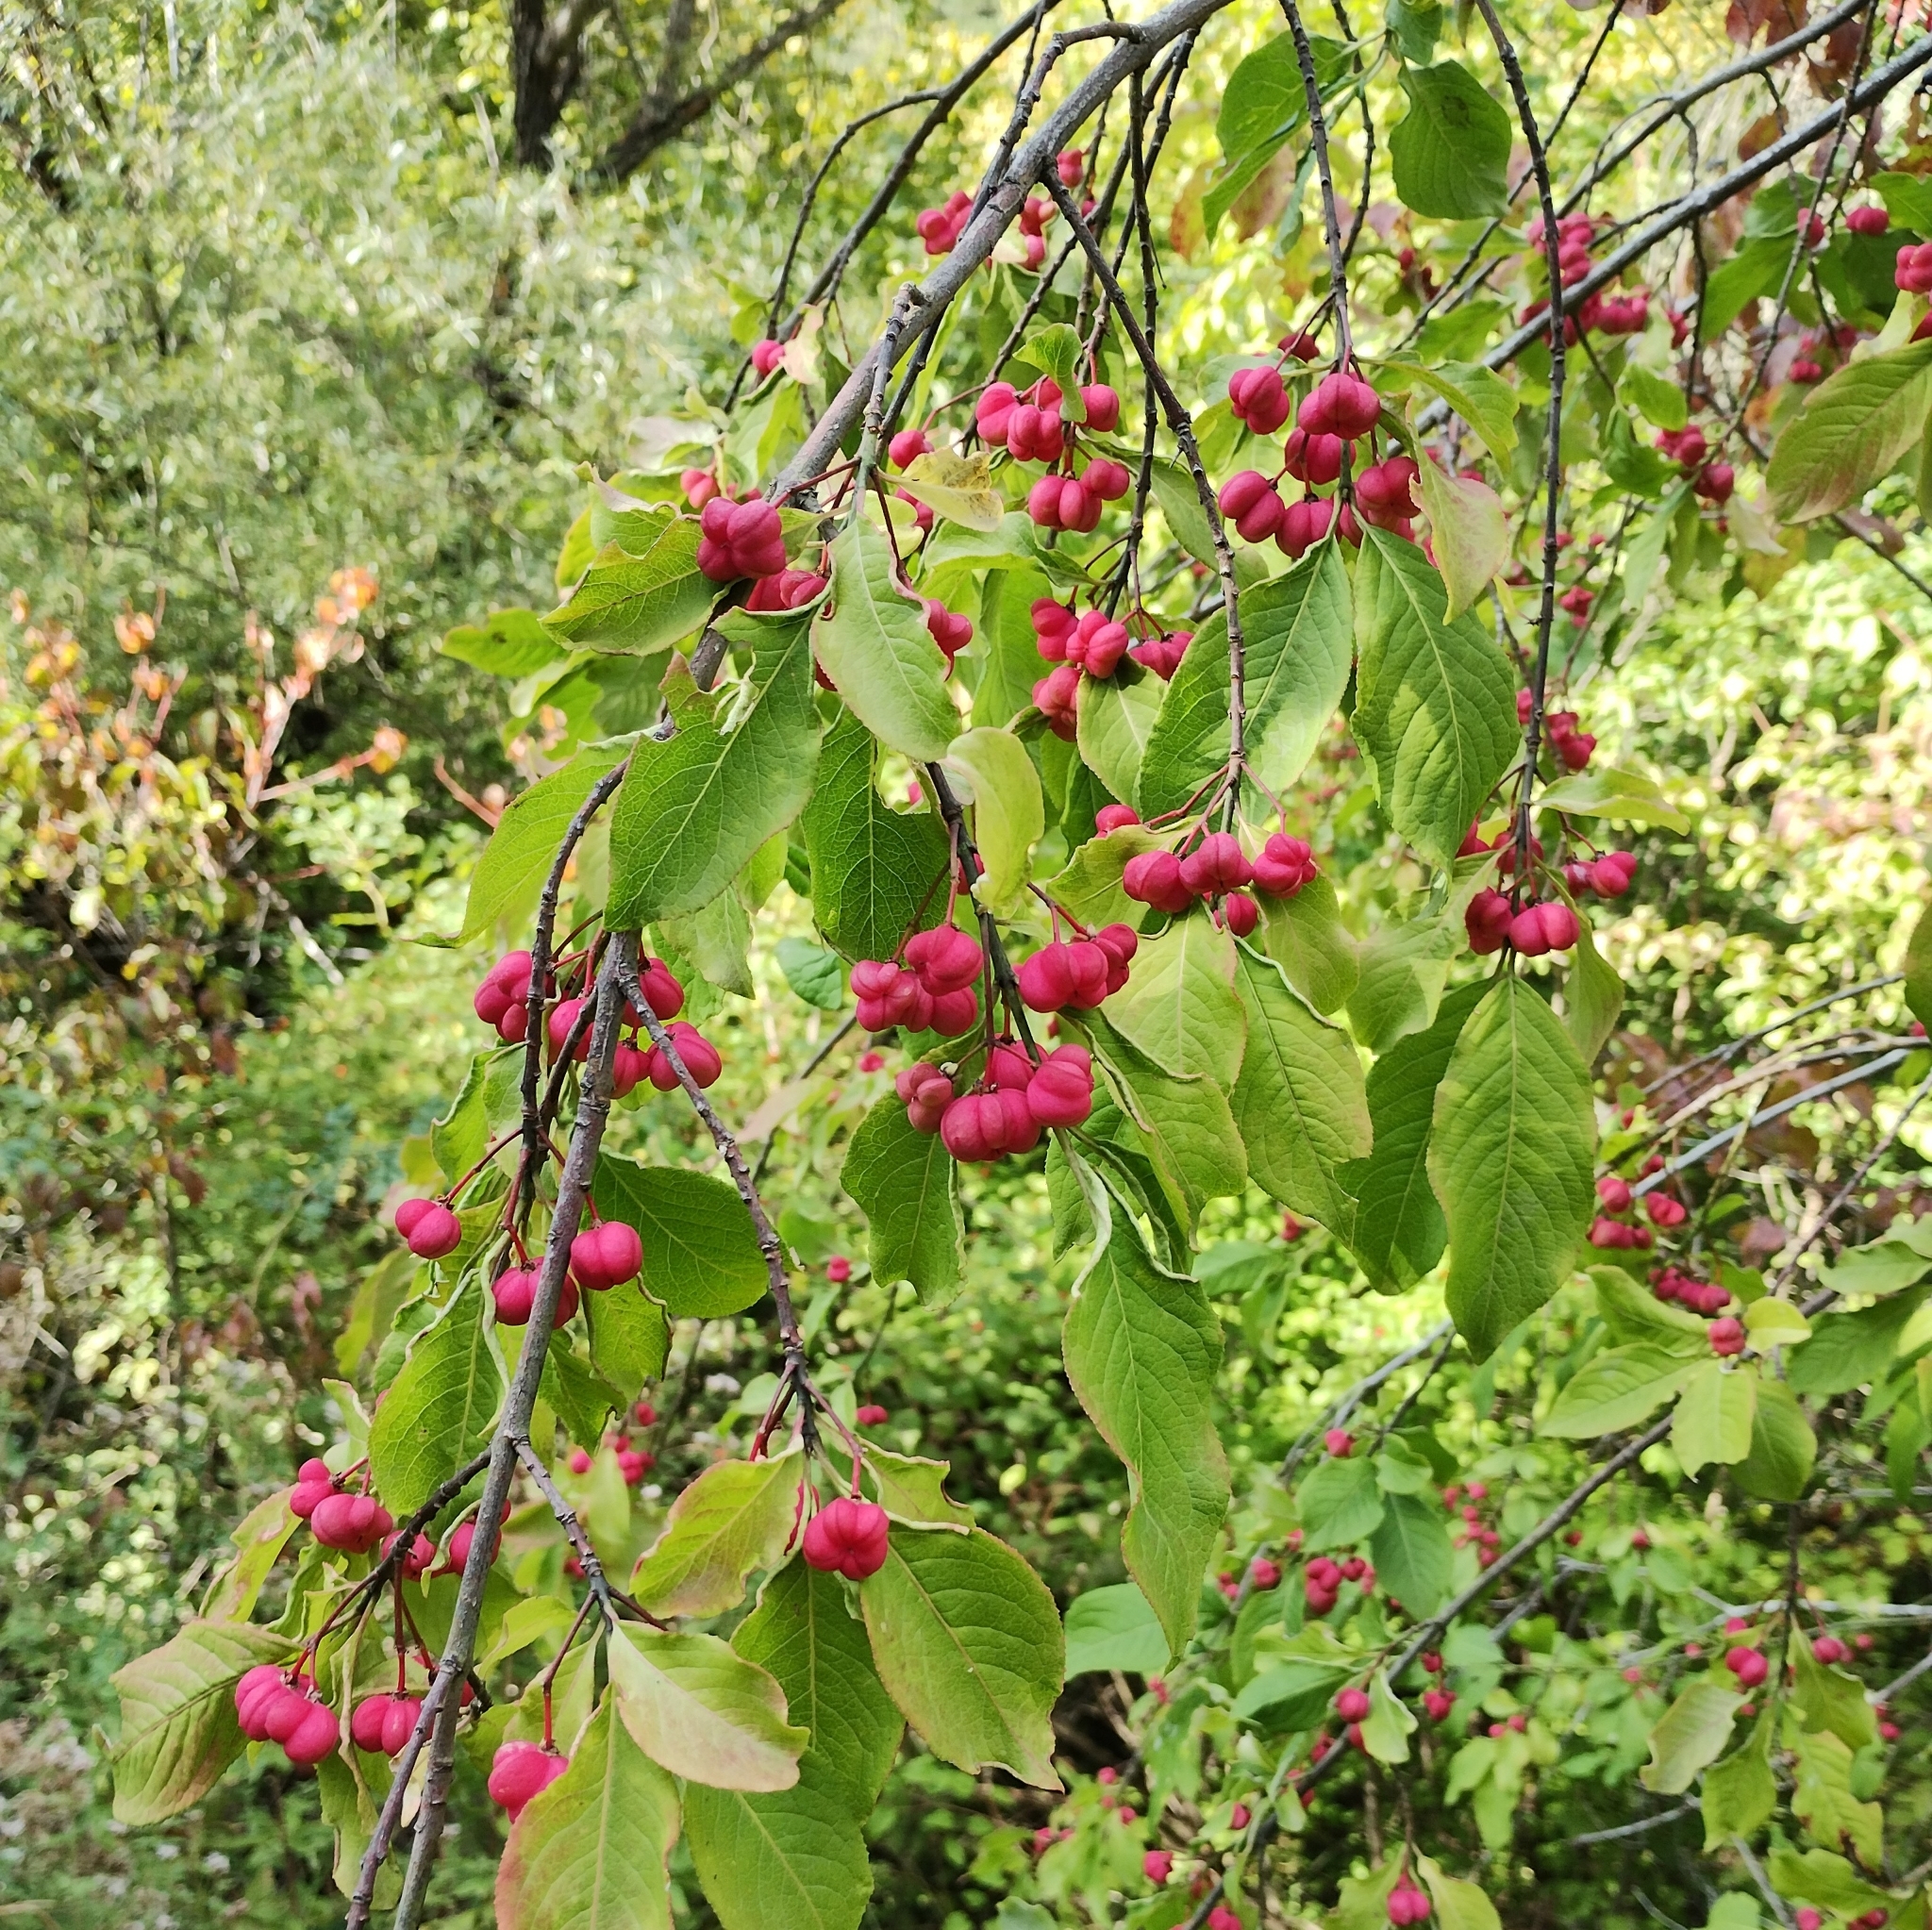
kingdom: Plantae
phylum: Tracheophyta
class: Magnoliopsida
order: Celastrales
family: Celastraceae
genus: Euonymus
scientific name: Euonymus europaeus
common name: Spindle
